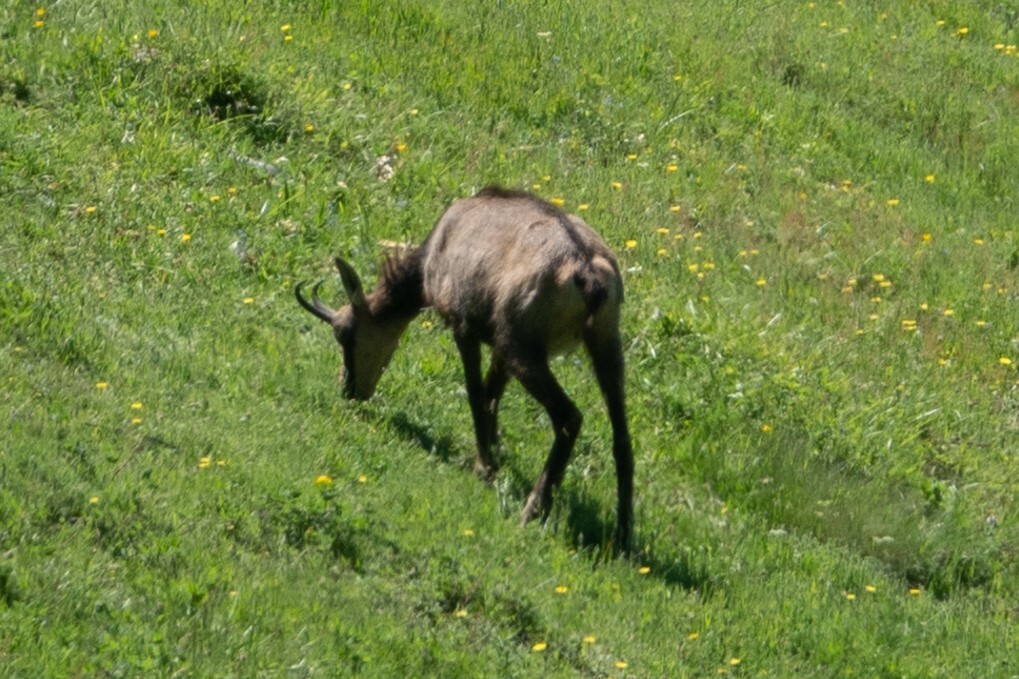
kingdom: Animalia
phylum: Chordata
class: Mammalia
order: Artiodactyla
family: Bovidae
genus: Rupicapra
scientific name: Rupicapra rupicapra
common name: Chamois
